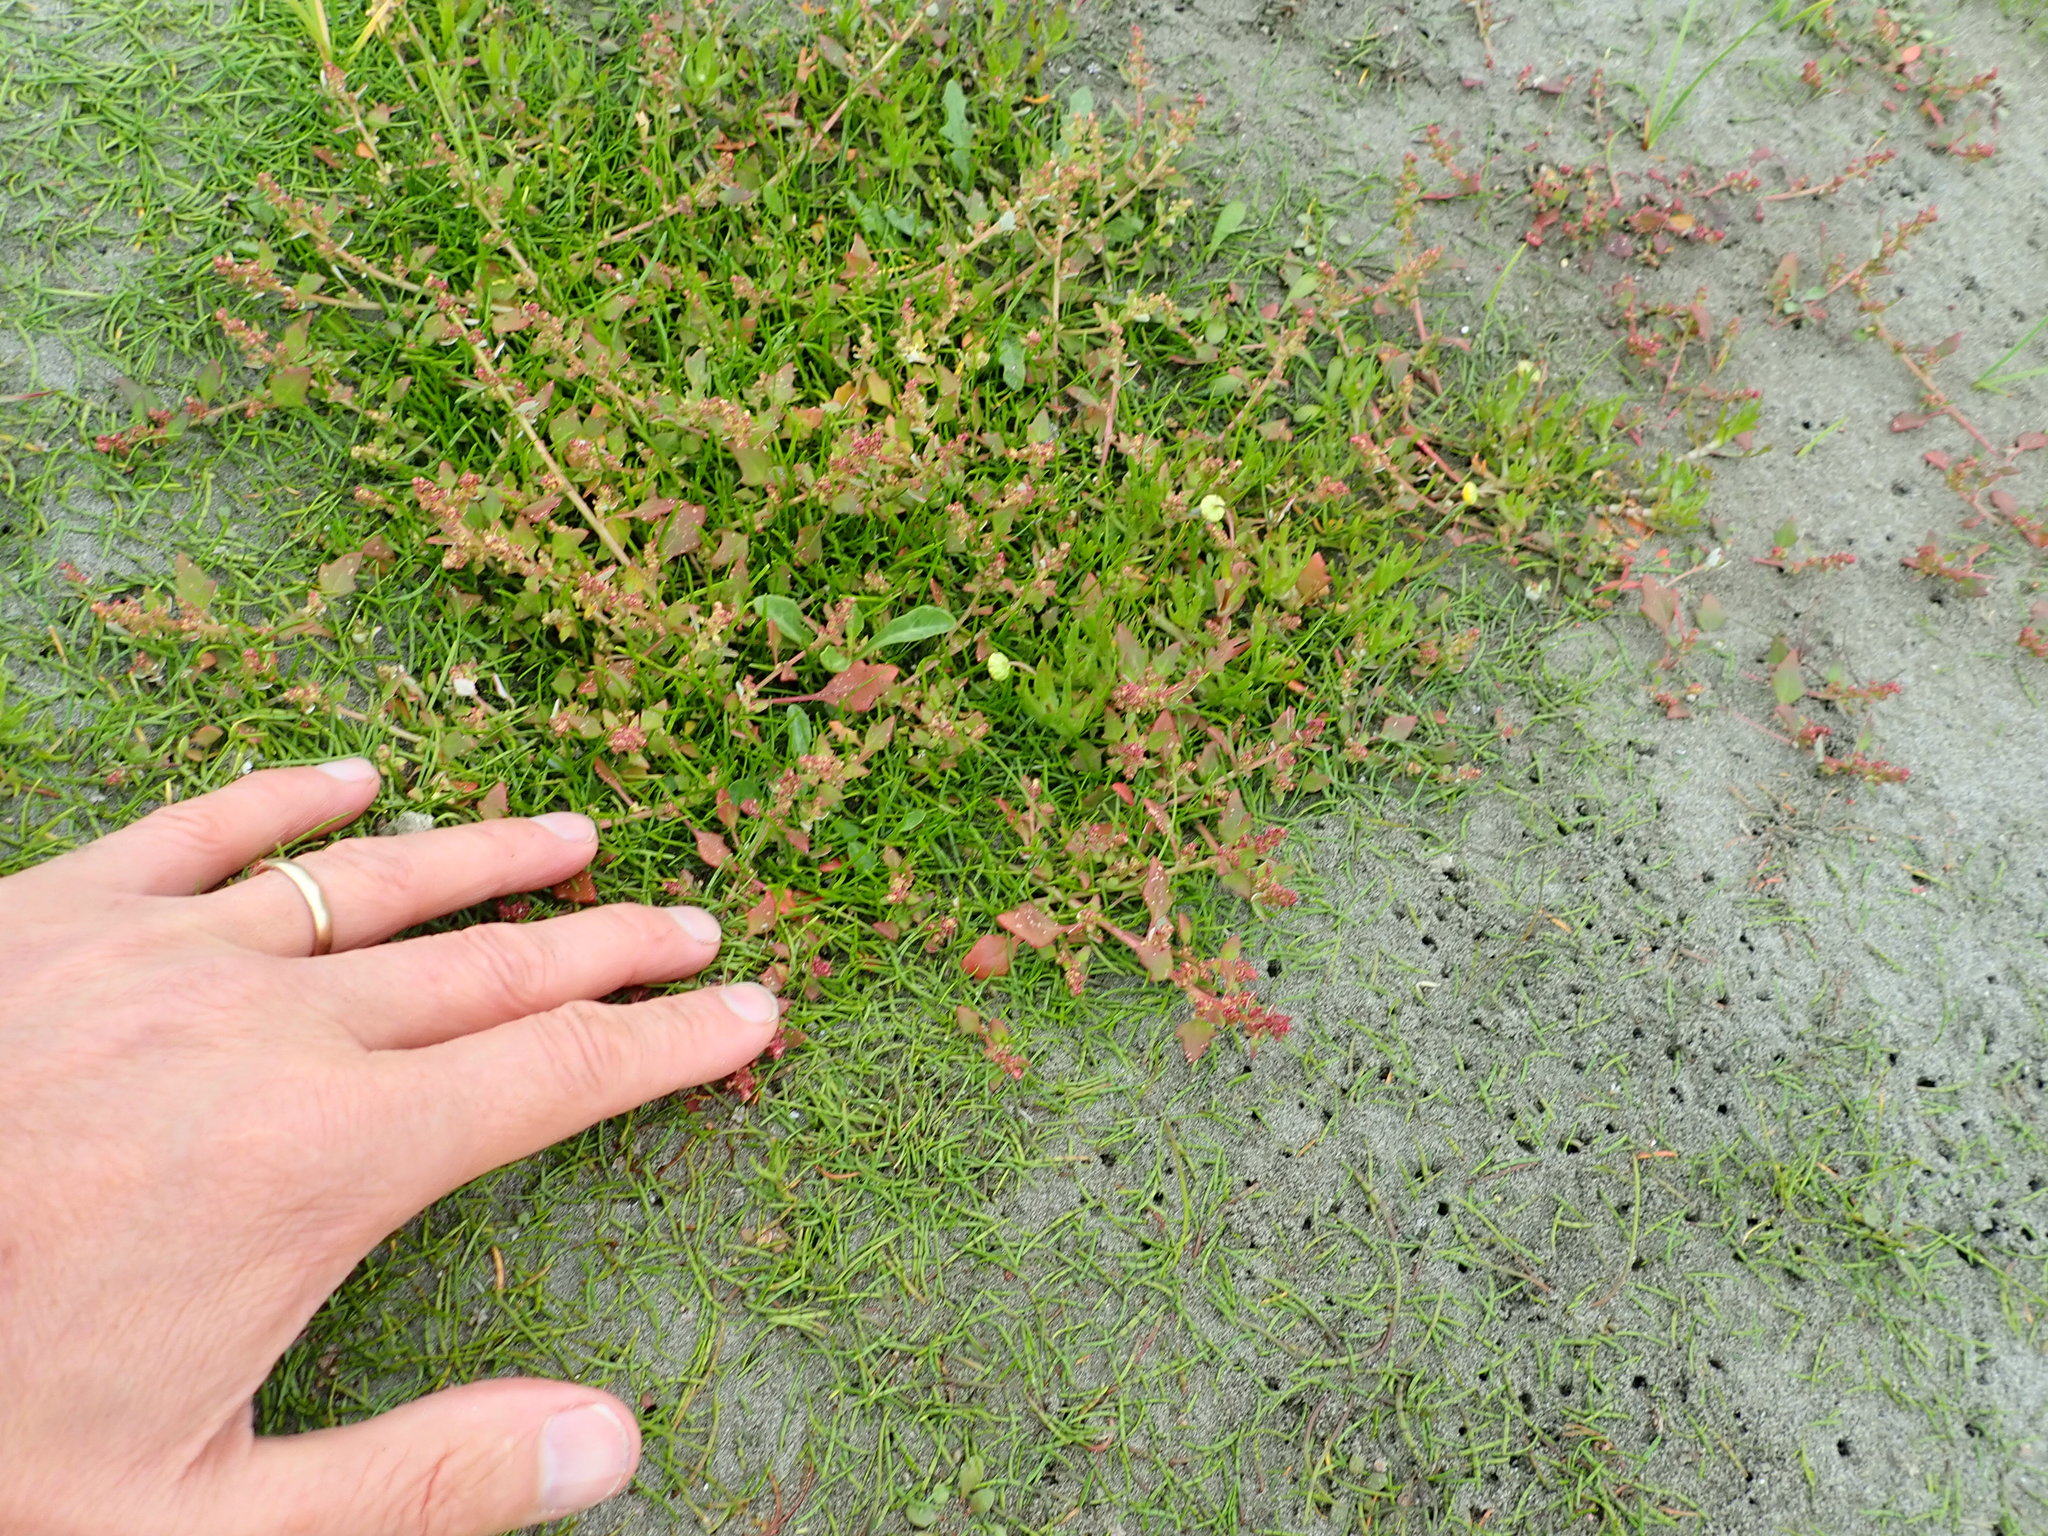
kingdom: Plantae
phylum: Tracheophyta
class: Magnoliopsida
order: Asterales
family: Asteraceae
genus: Cotula
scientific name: Cotula coronopifolia
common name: Buttonweed
